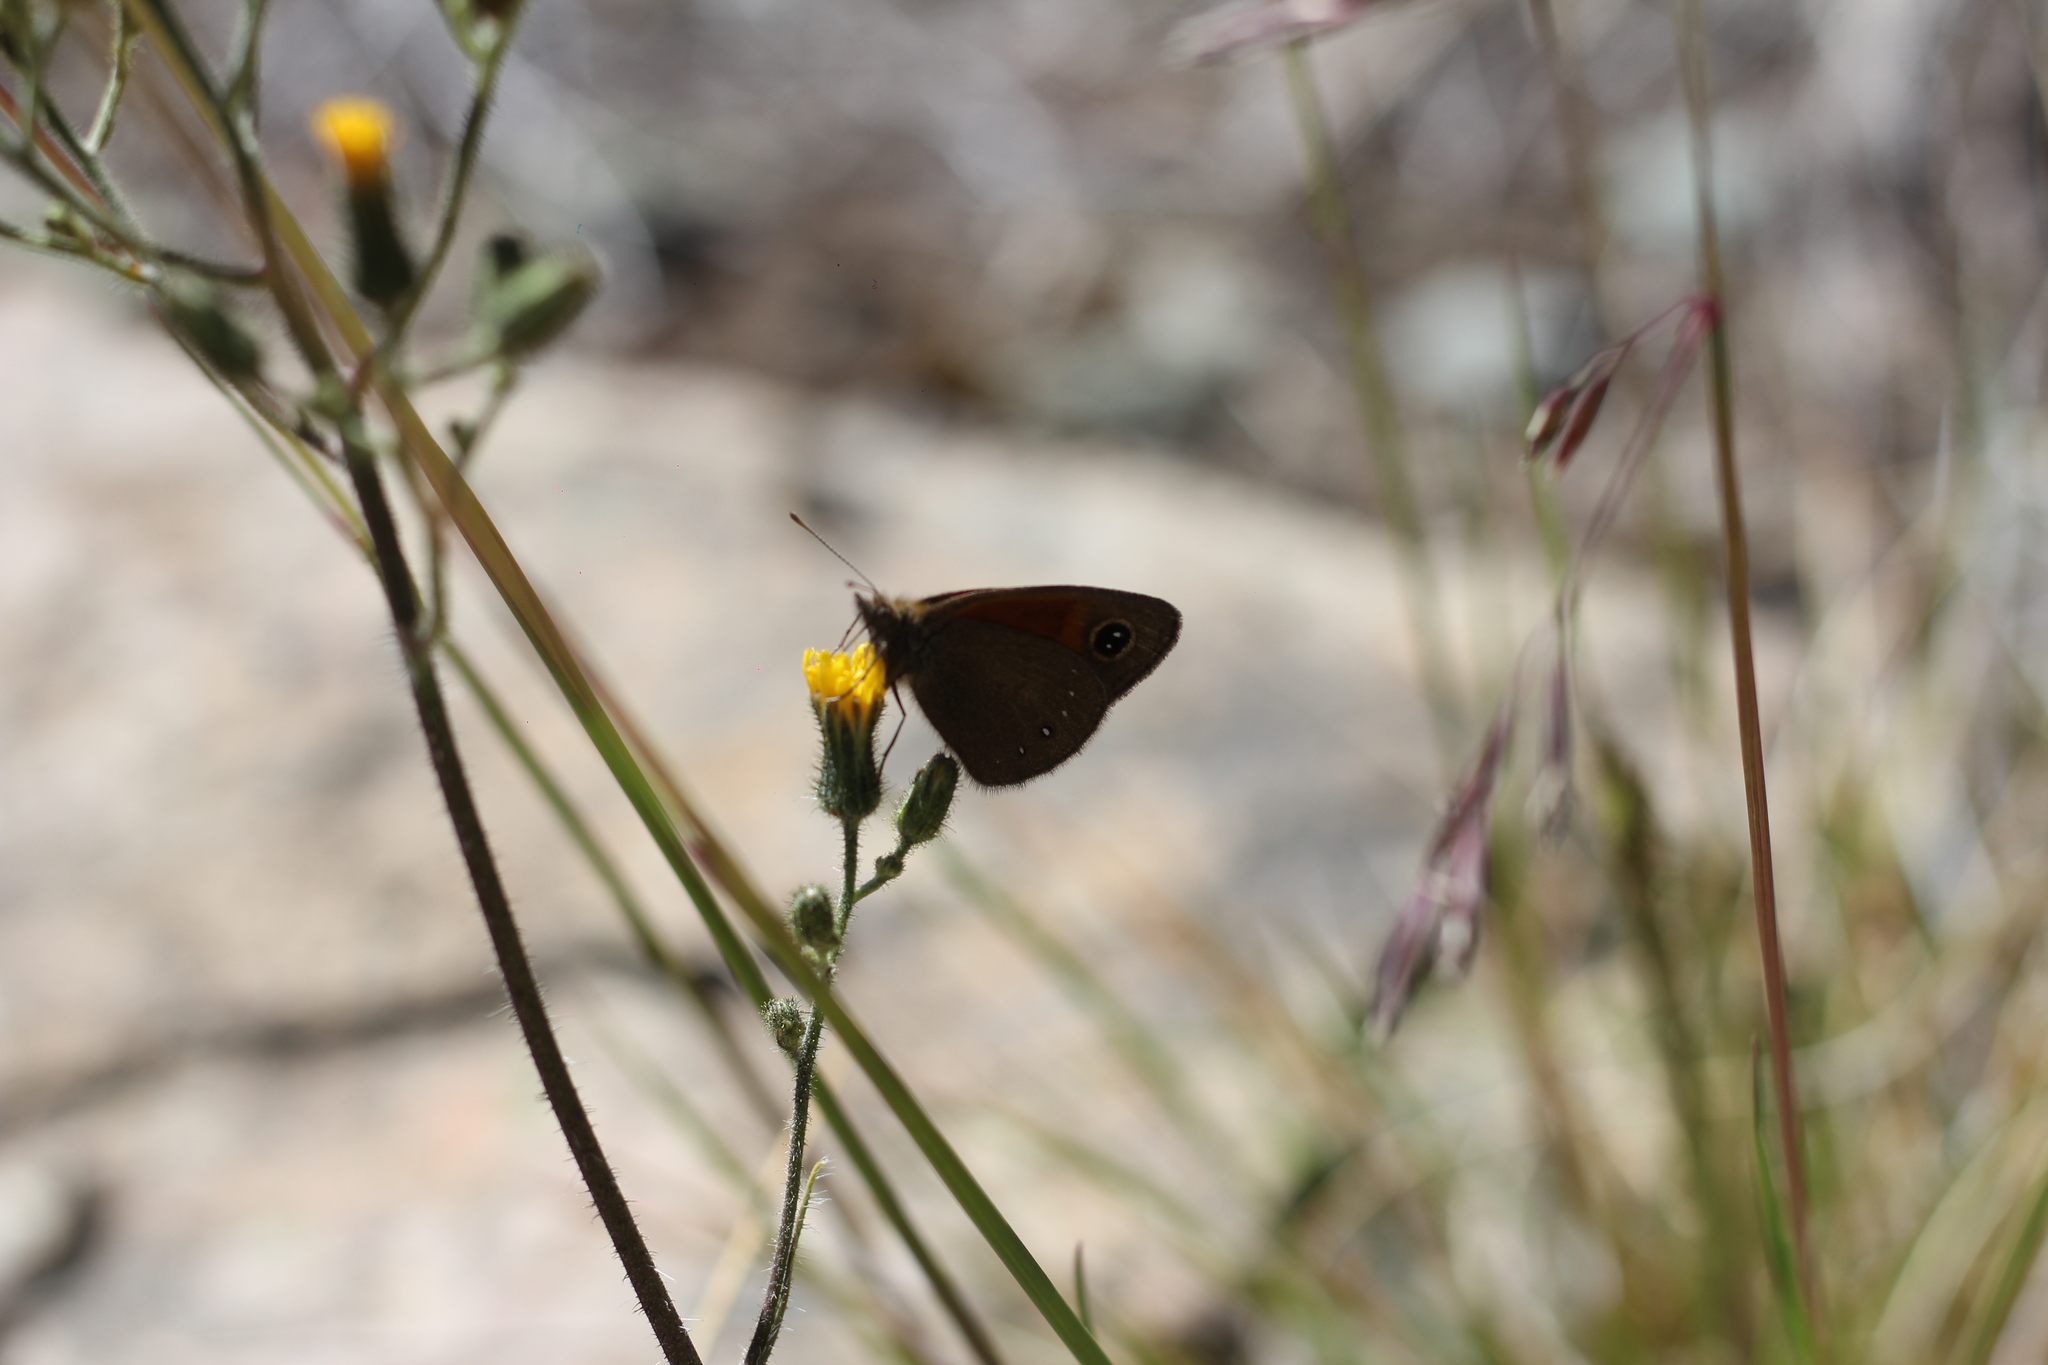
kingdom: Animalia
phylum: Arthropoda
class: Insecta
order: Lepidoptera
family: Nymphalidae
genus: Faunula
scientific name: Faunula stelligera
